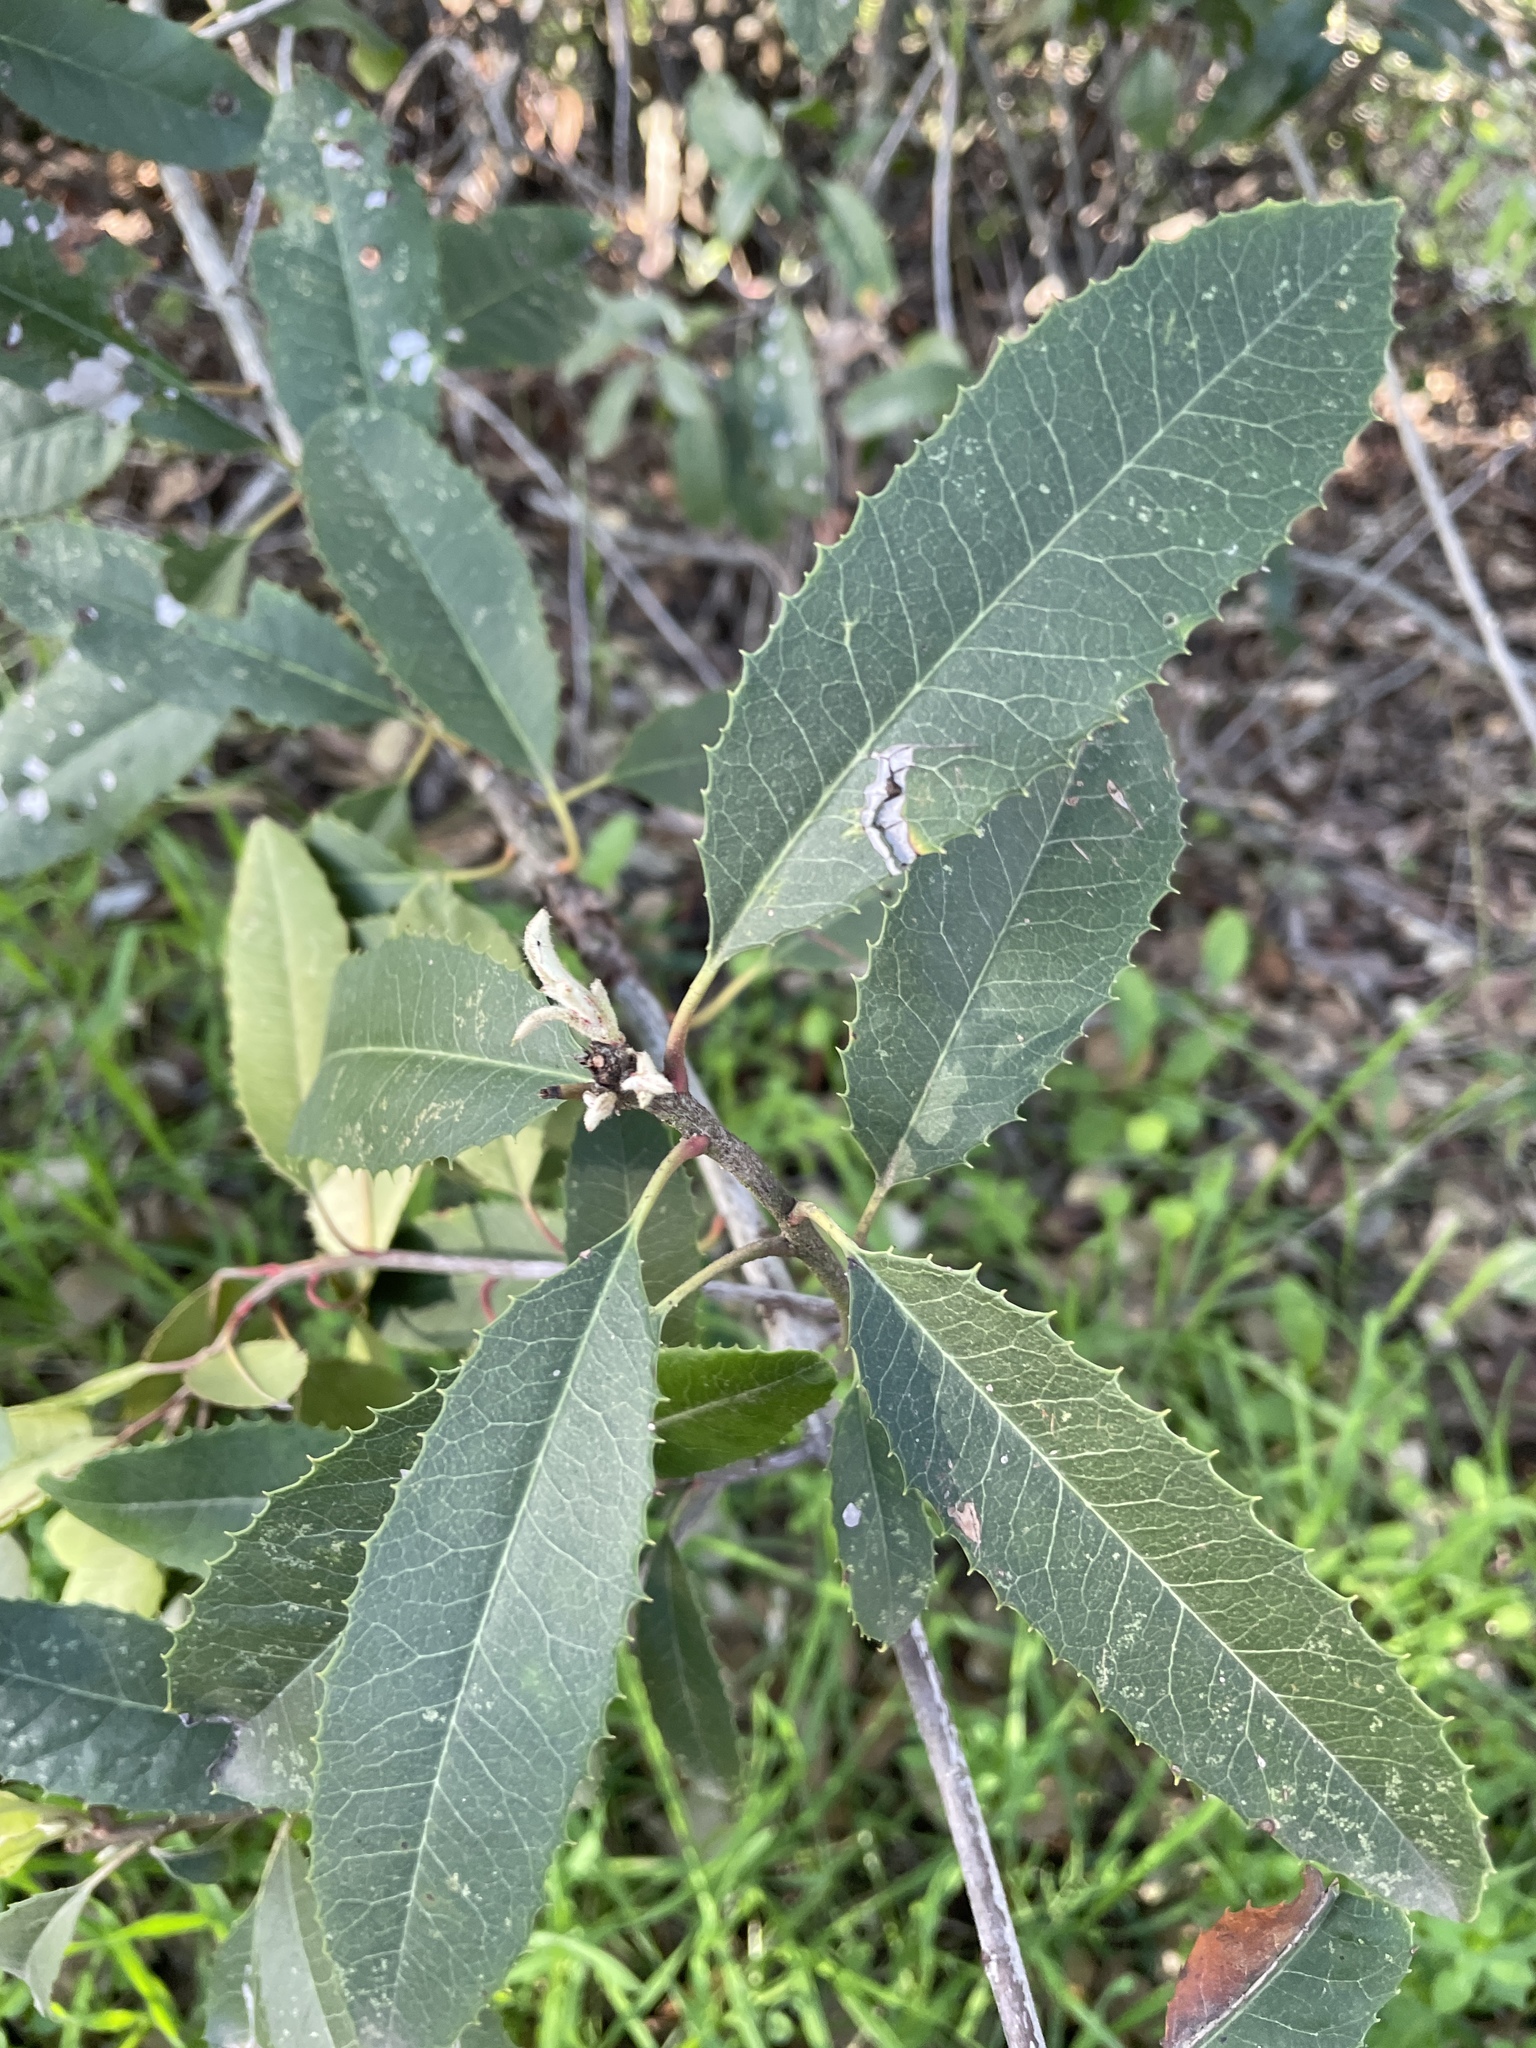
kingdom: Plantae
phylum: Tracheophyta
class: Magnoliopsida
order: Rosales
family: Rosaceae
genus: Heteromeles
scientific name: Heteromeles arbutifolia
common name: California-holly
